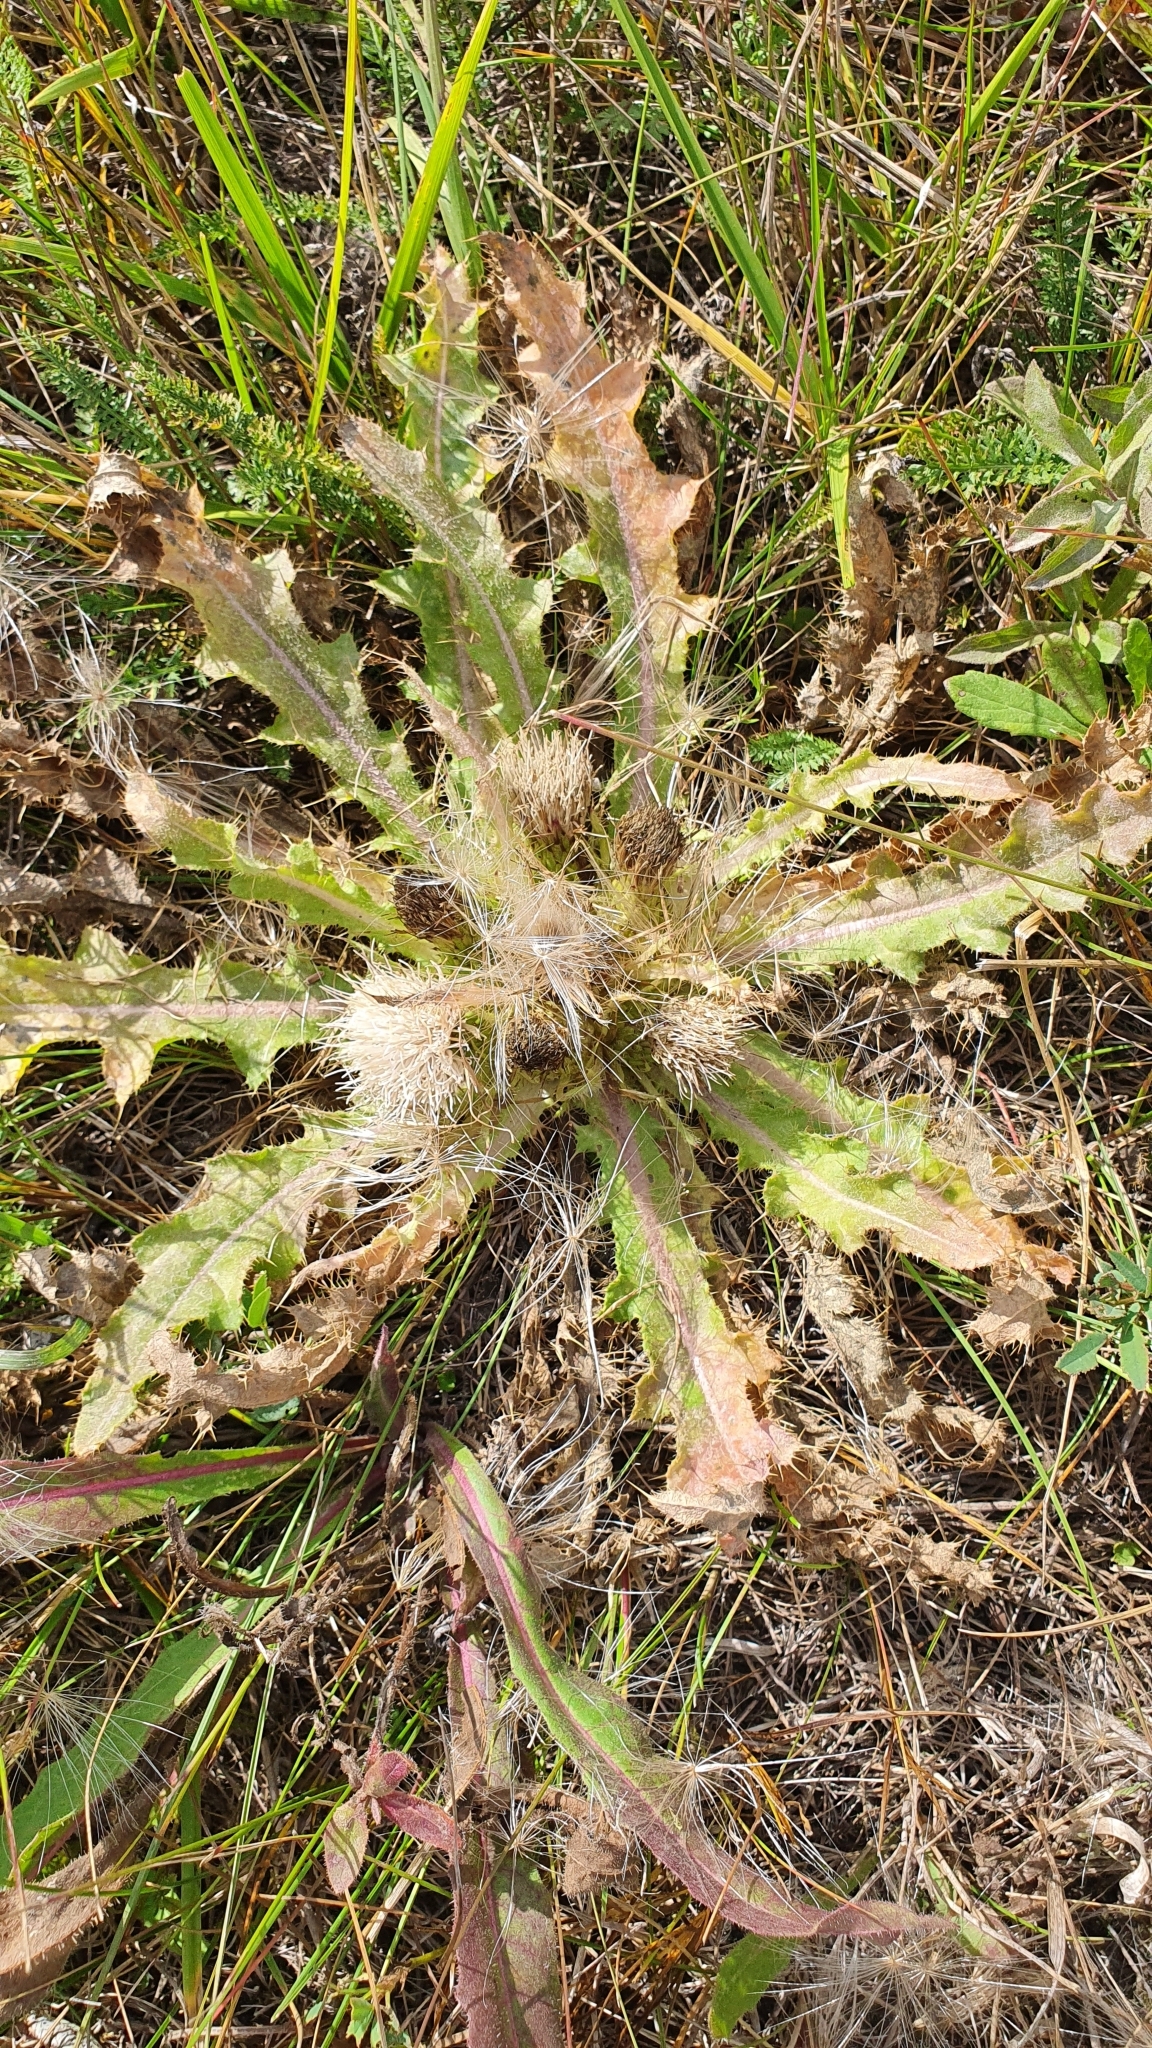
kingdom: Plantae
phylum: Tracheophyta
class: Magnoliopsida
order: Asterales
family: Asteraceae
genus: Cirsium
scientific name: Cirsium esculentum
